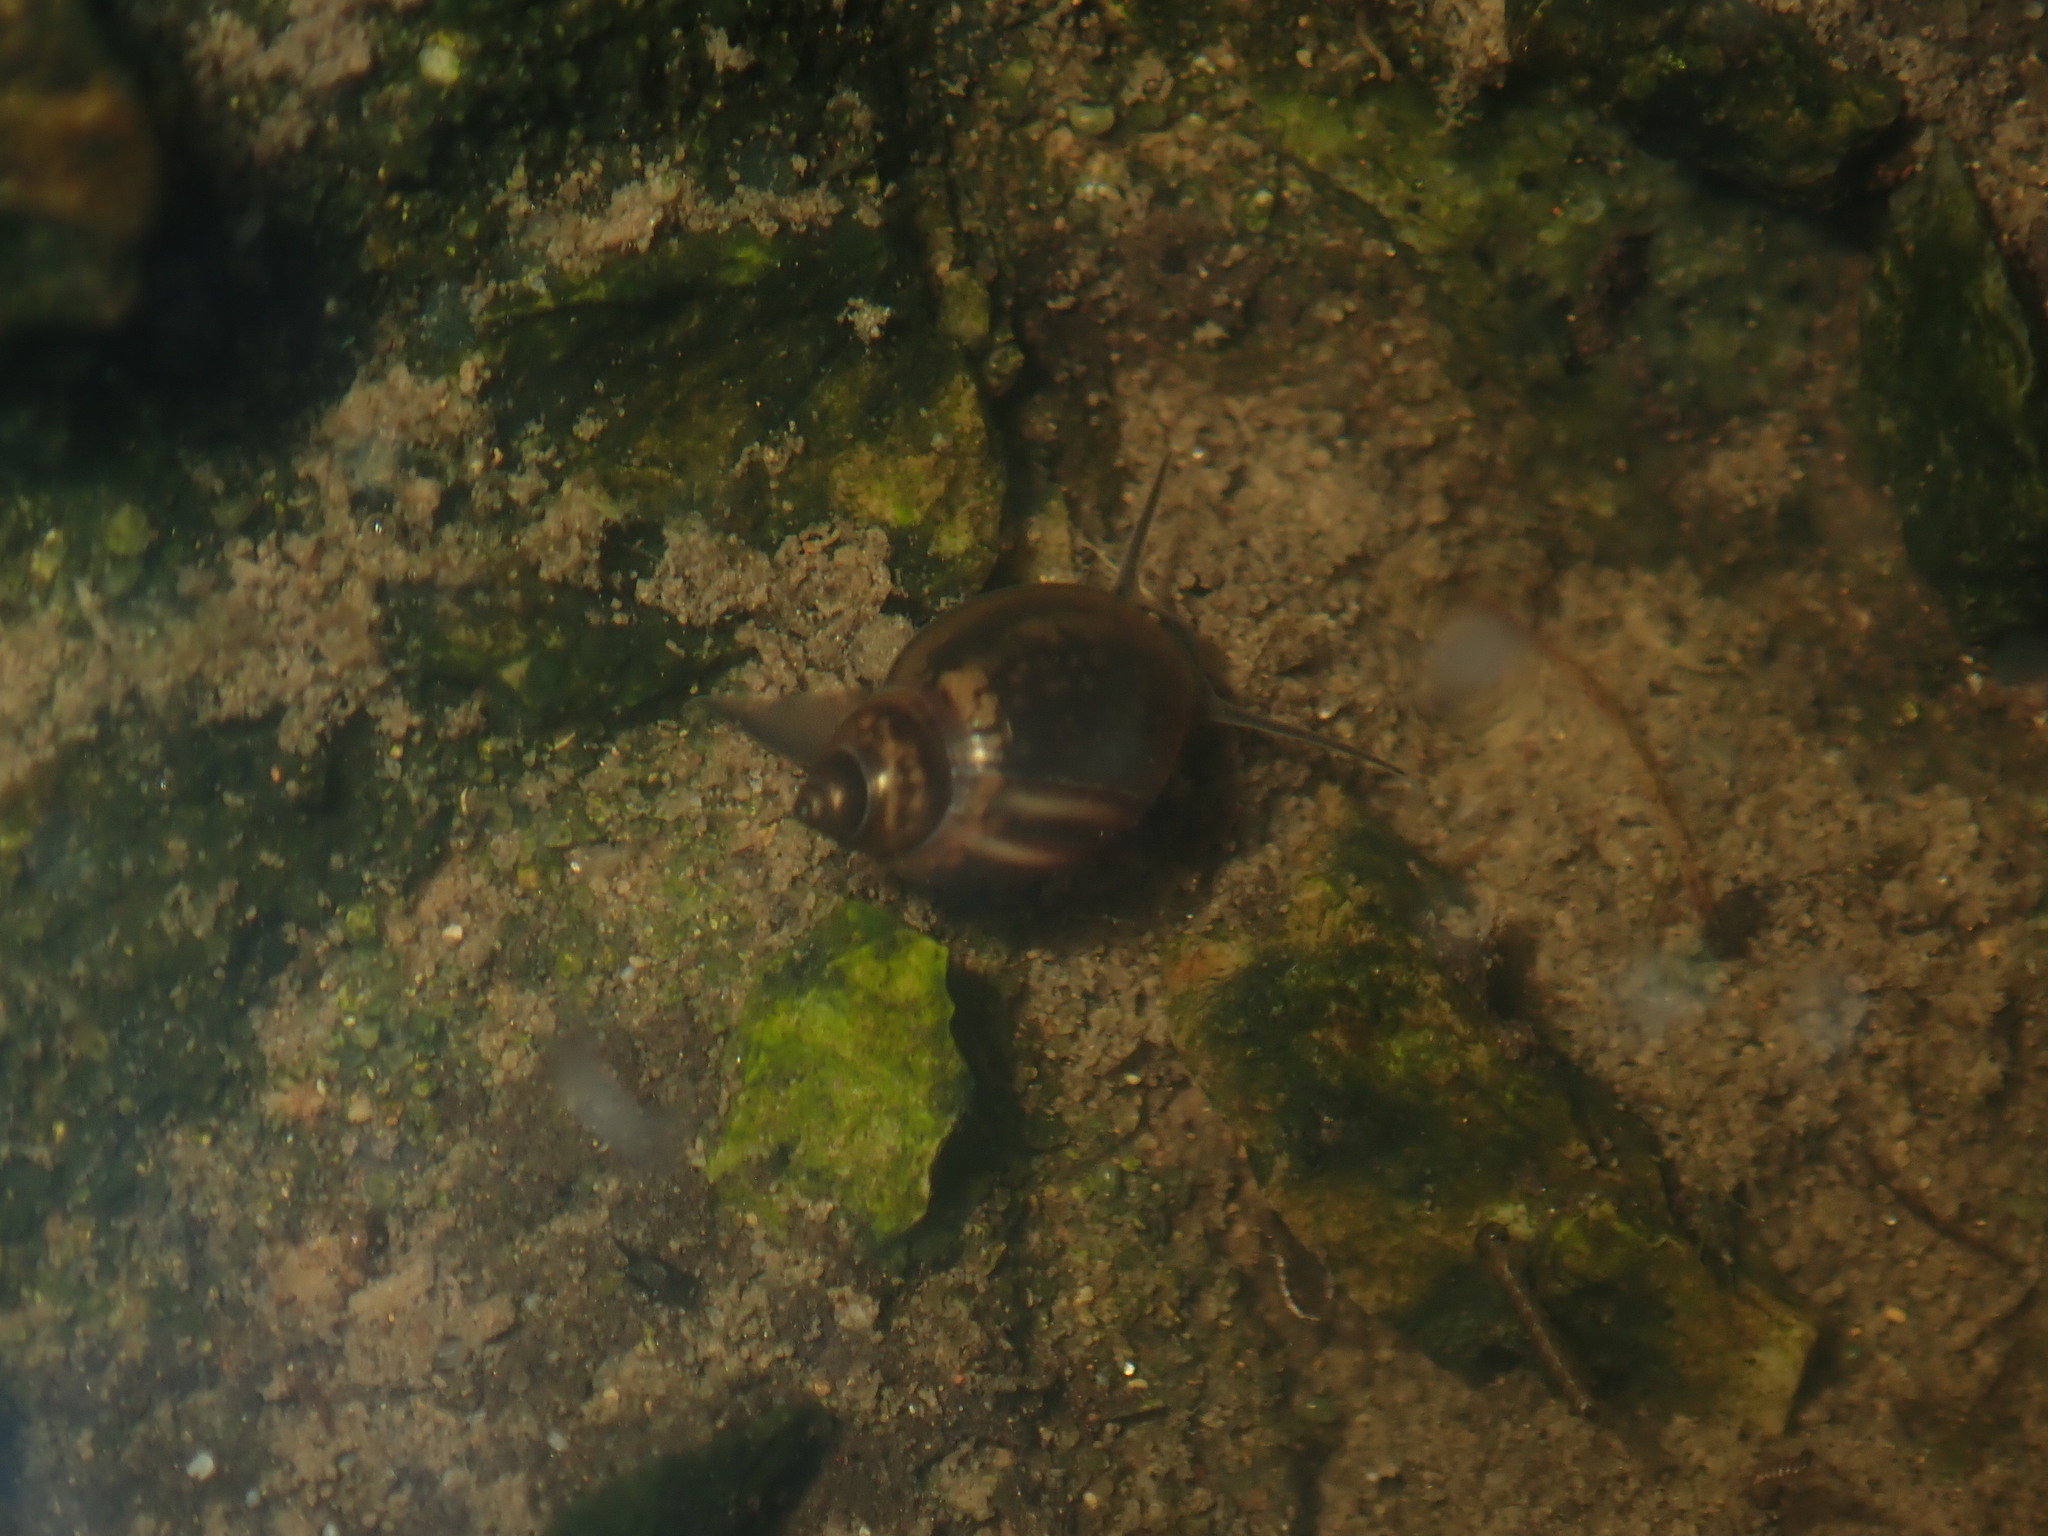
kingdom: Animalia
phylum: Mollusca
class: Gastropoda
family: Physidae
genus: Physella
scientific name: Physella acuta
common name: European physa
